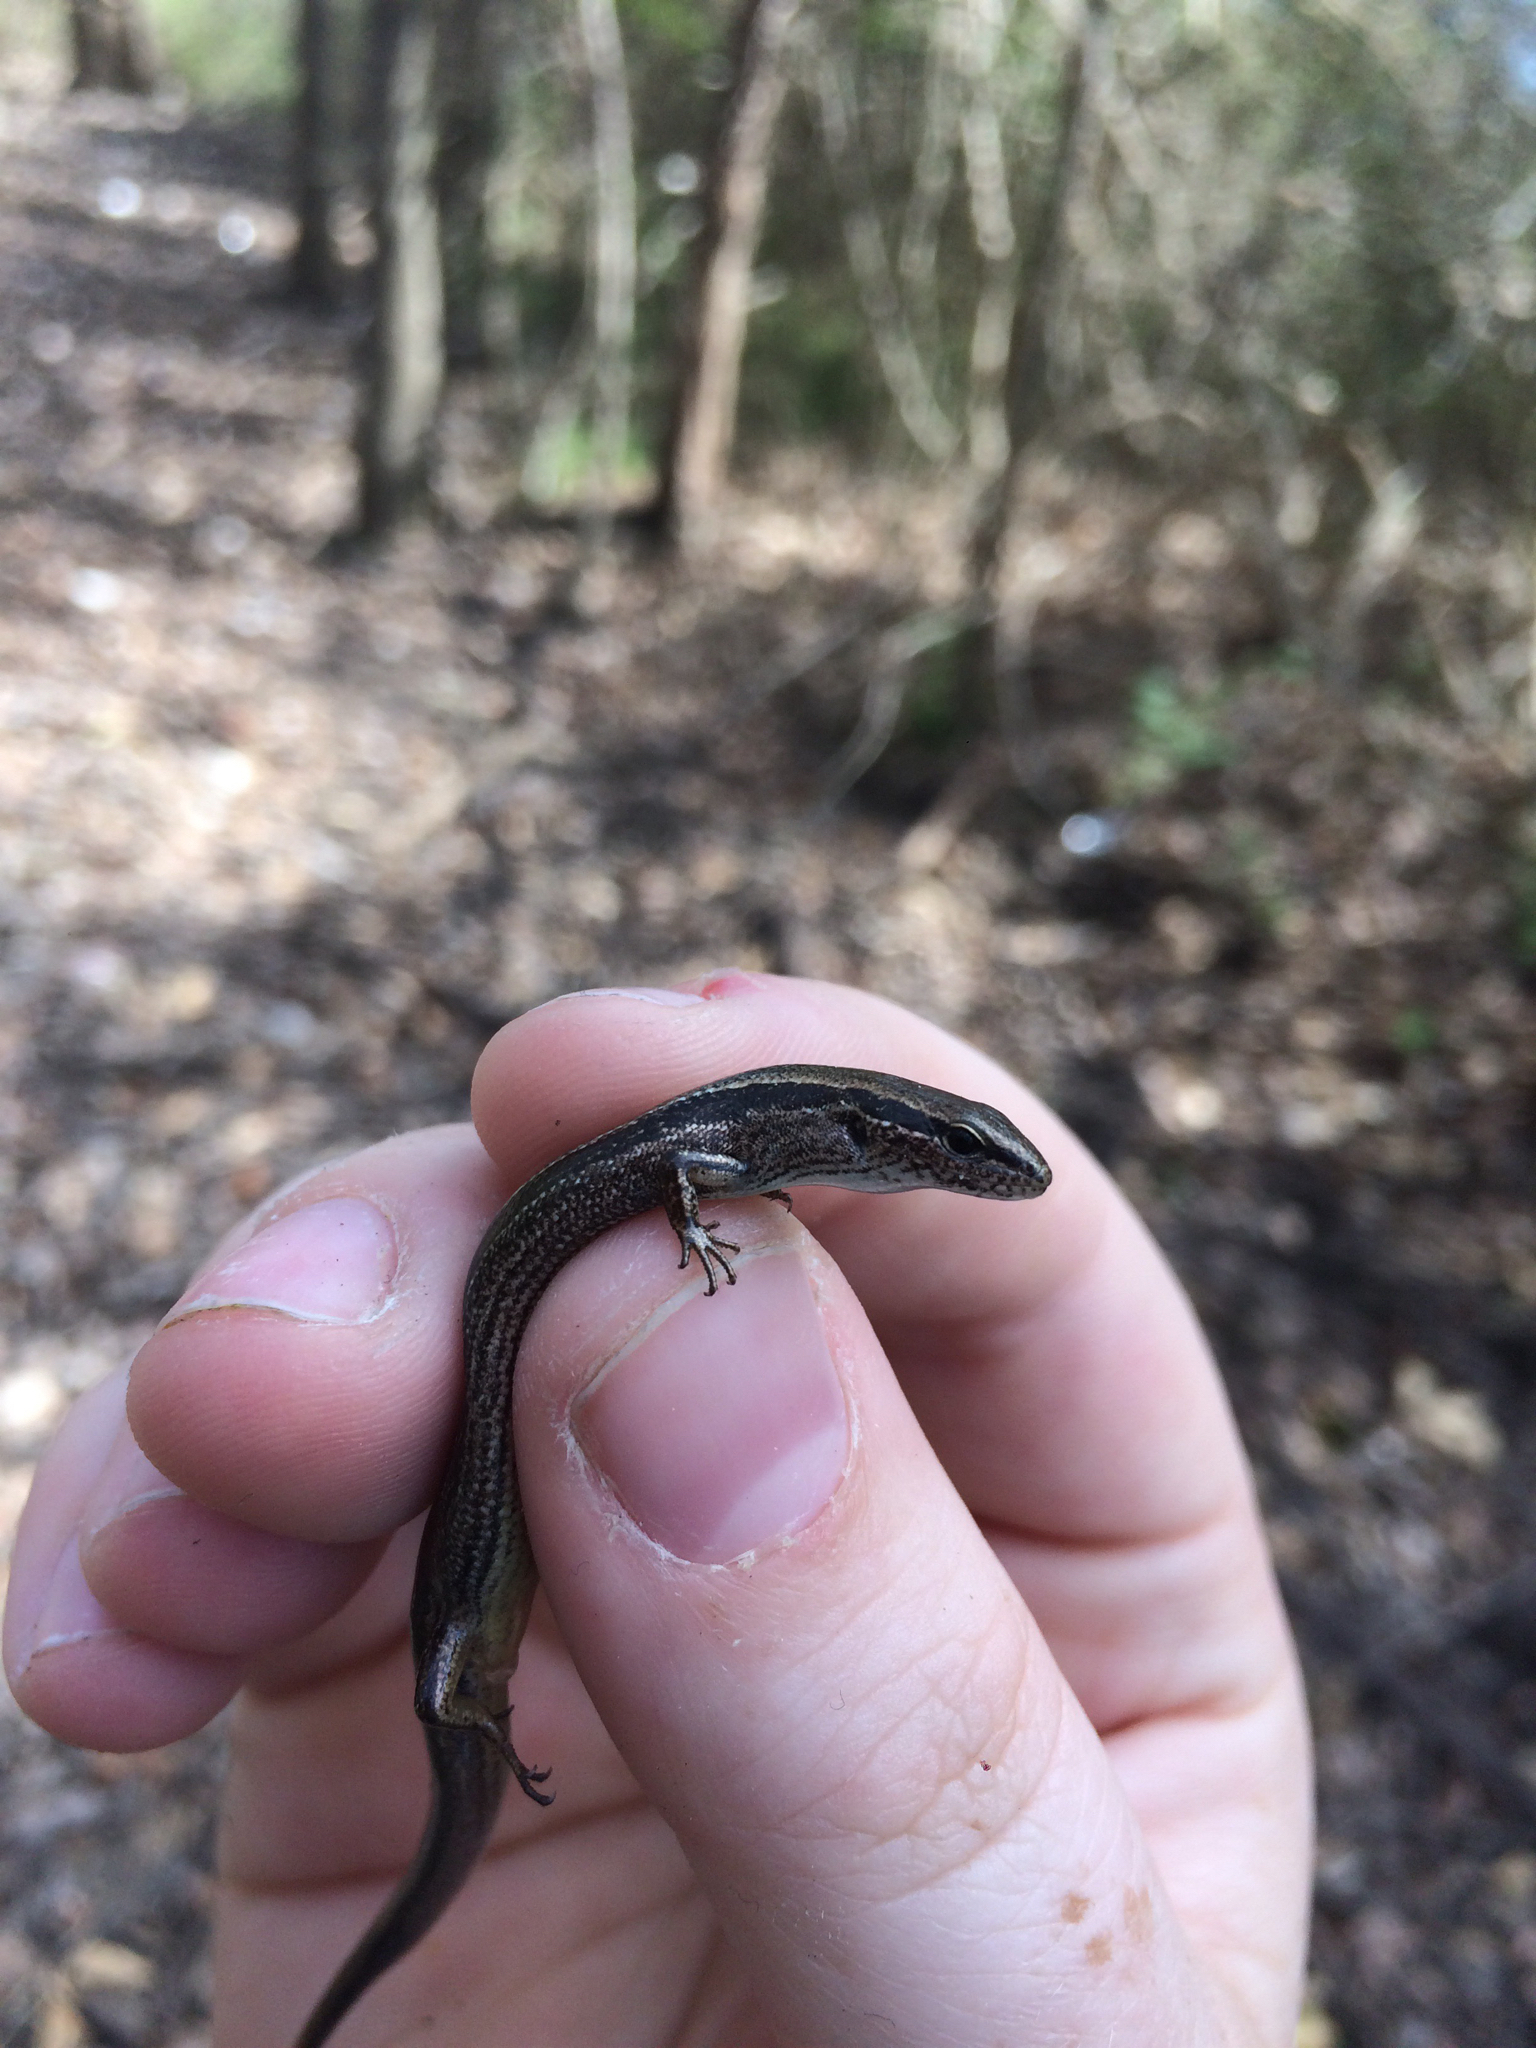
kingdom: Animalia
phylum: Chordata
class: Squamata
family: Scincidae
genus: Scincella
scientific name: Scincella lateralis
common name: Ground skink
